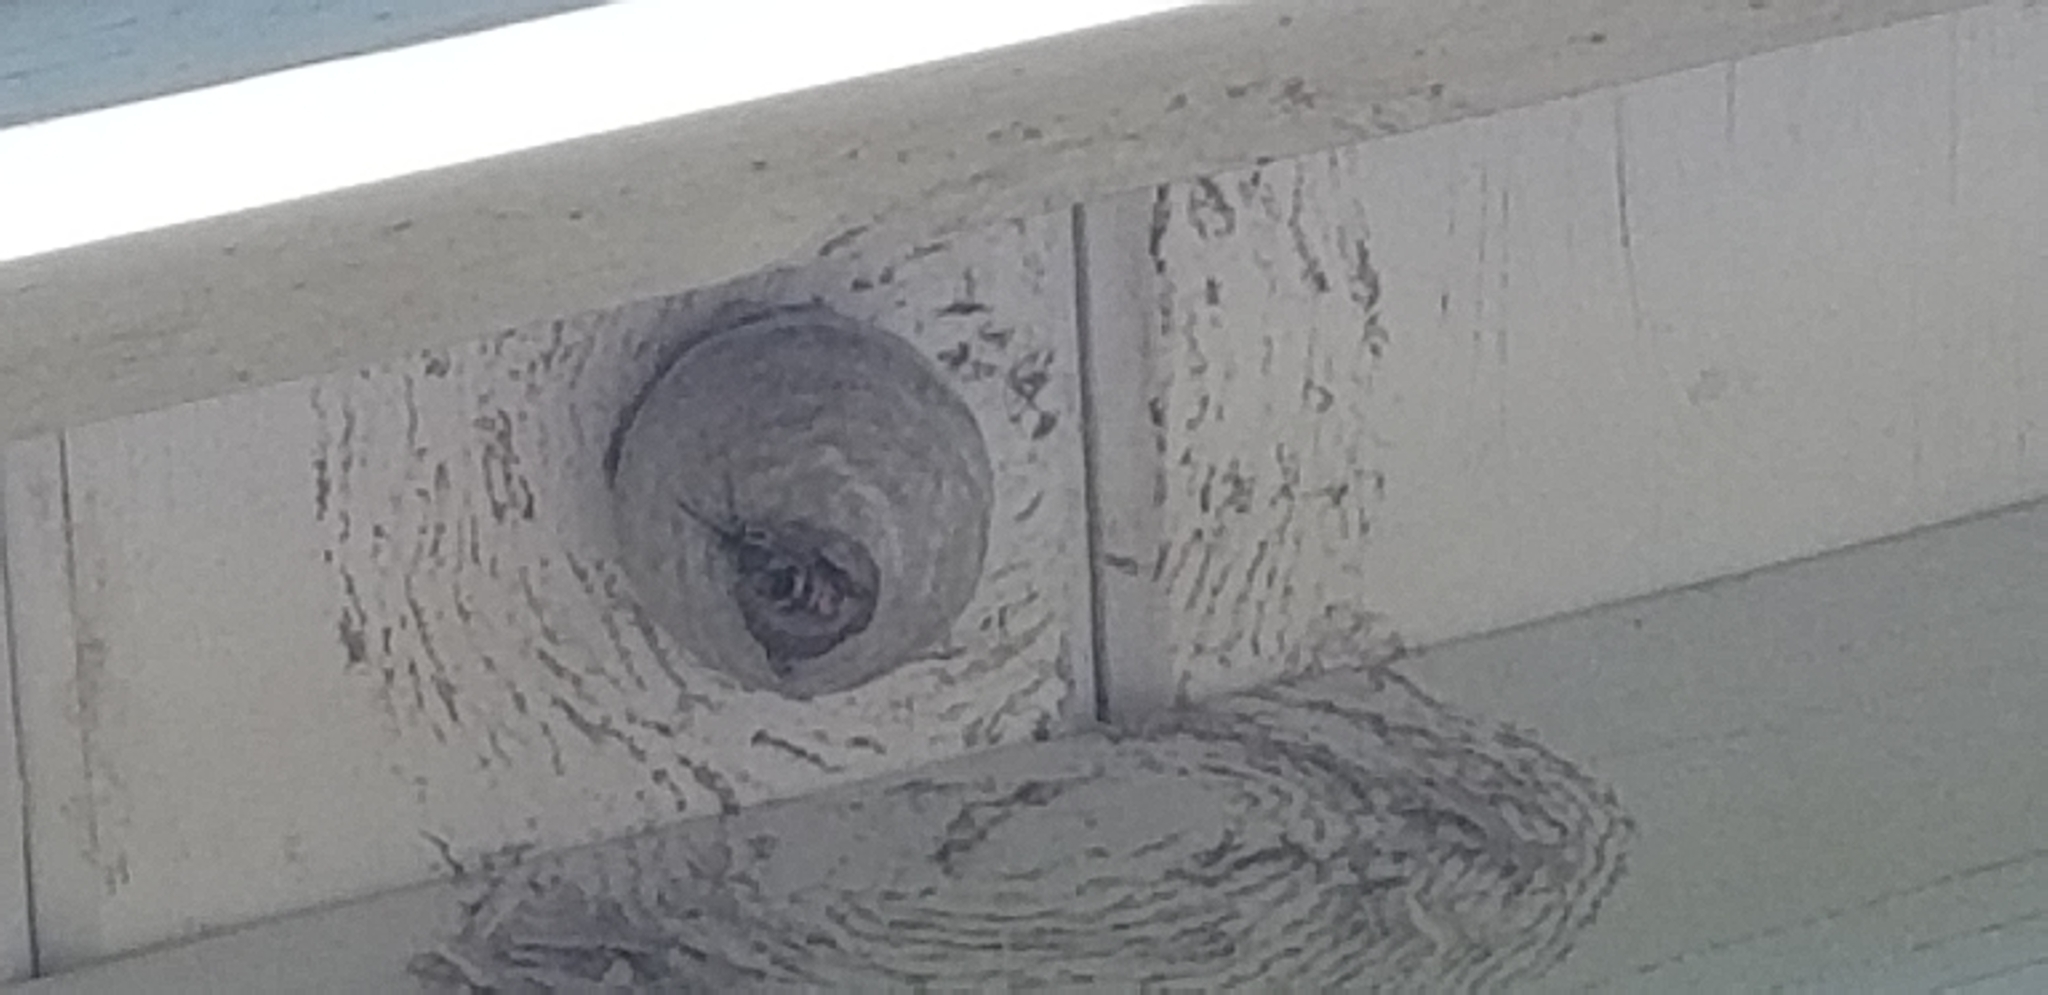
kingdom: Animalia
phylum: Arthropoda
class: Insecta
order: Hymenoptera
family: Vespidae
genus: Dolichovespula
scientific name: Dolichovespula arenaria
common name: Aerial yellowjacket
